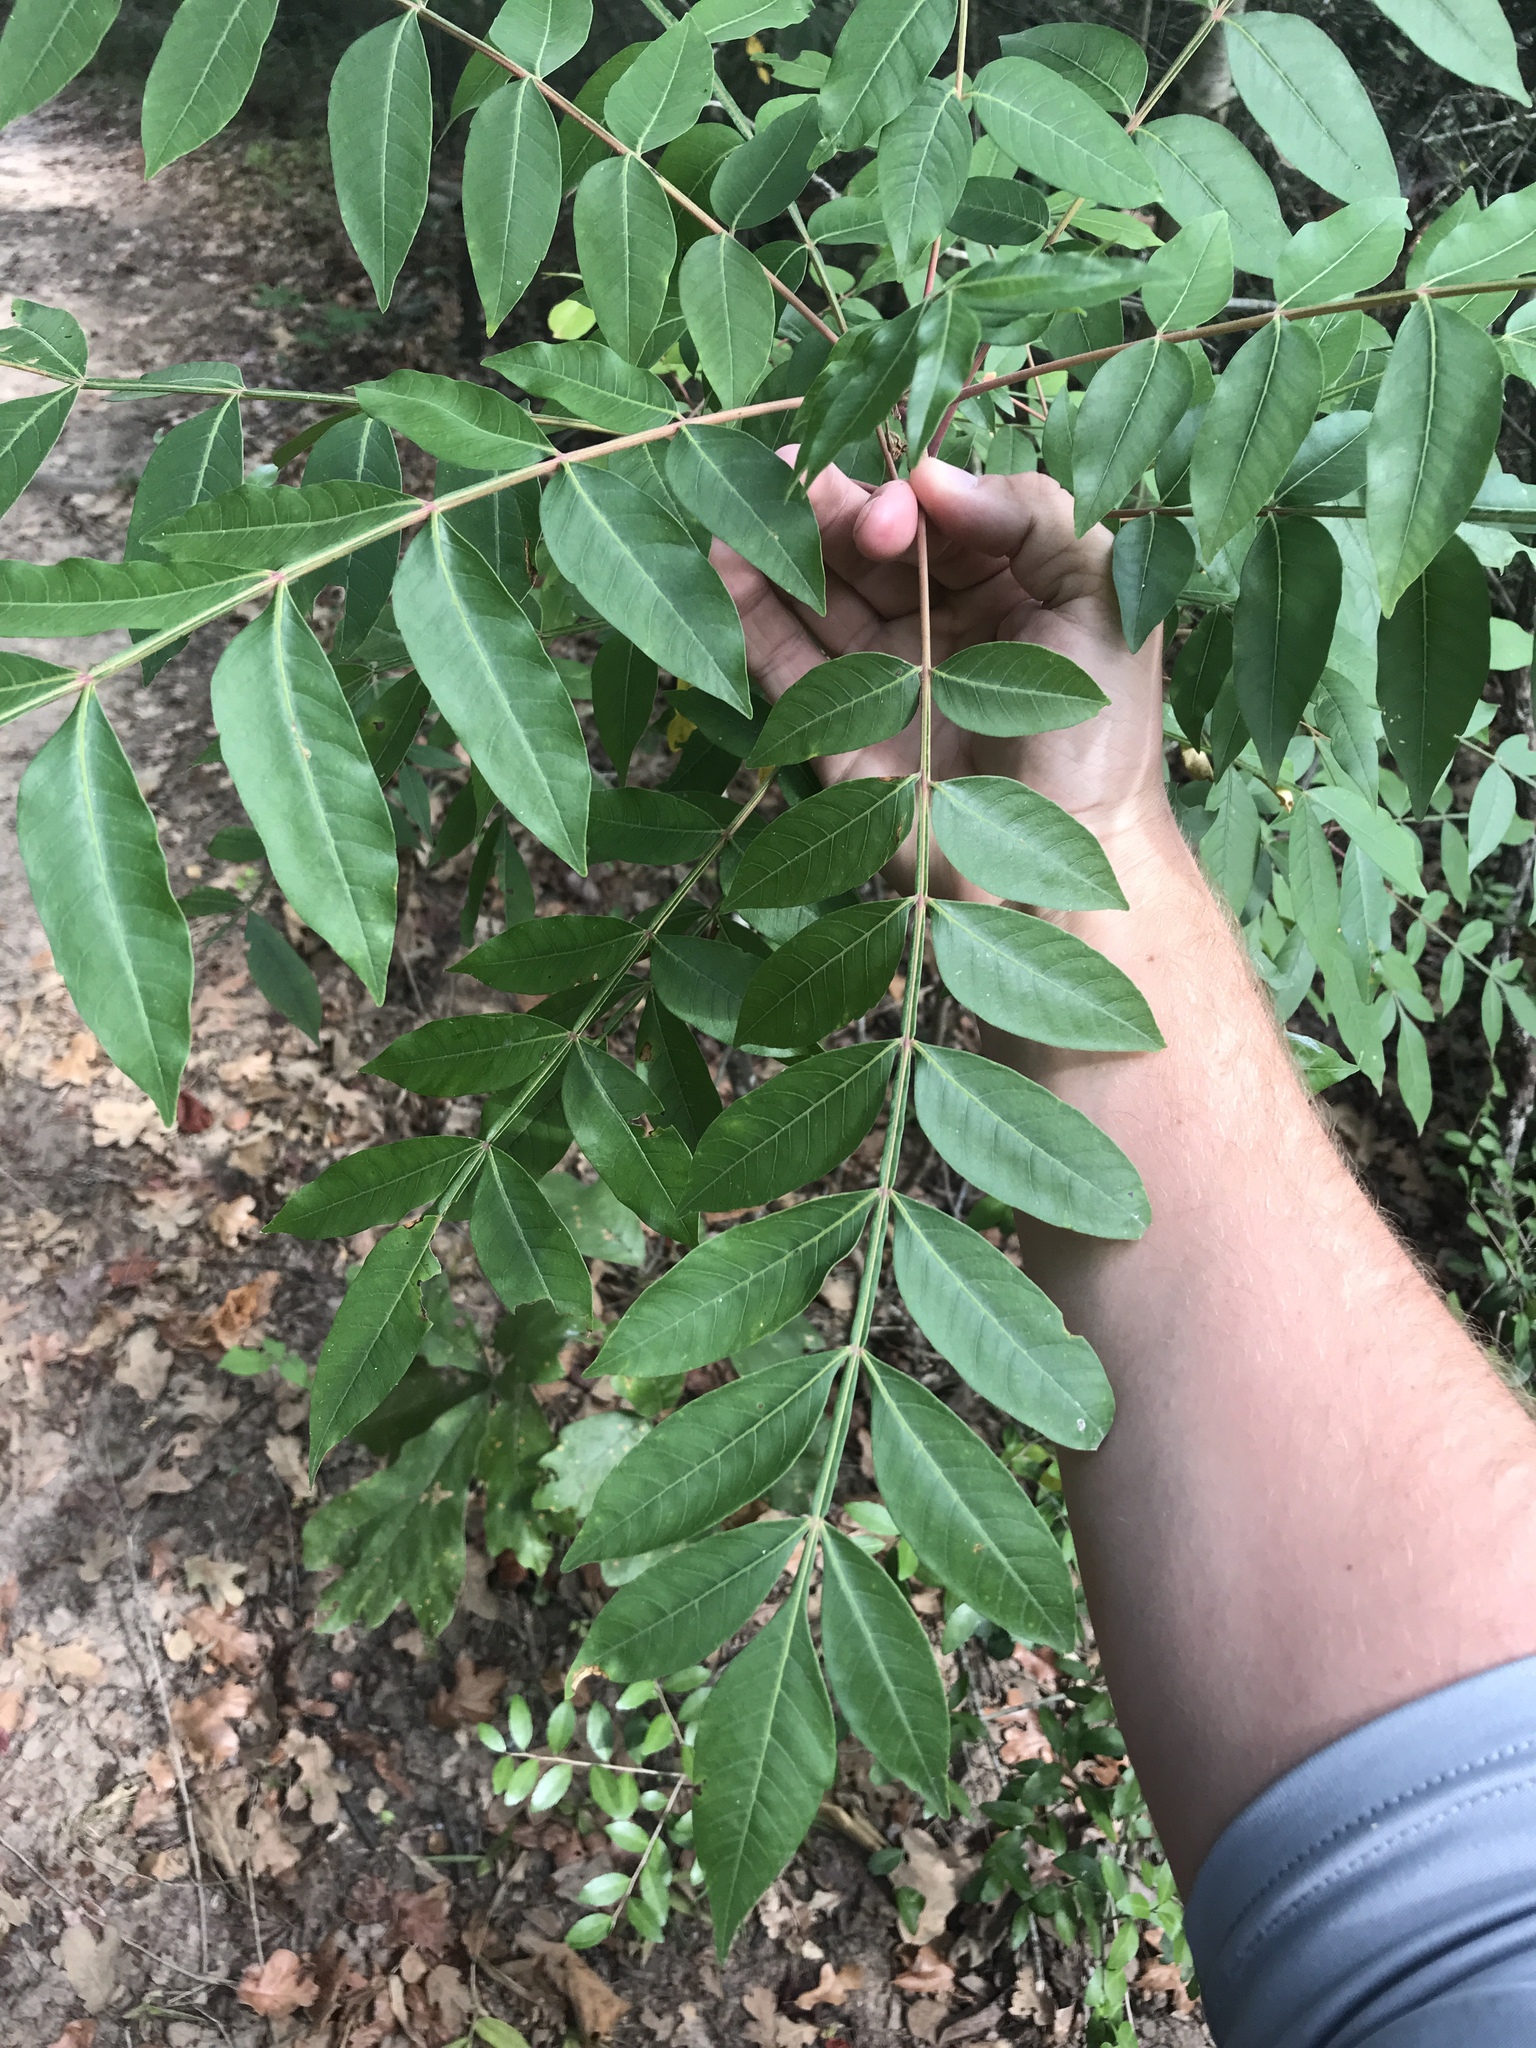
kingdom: Plantae
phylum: Tracheophyta
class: Magnoliopsida
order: Sapindales
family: Anacardiaceae
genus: Rhus
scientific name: Rhus copallina
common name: Shining sumac
